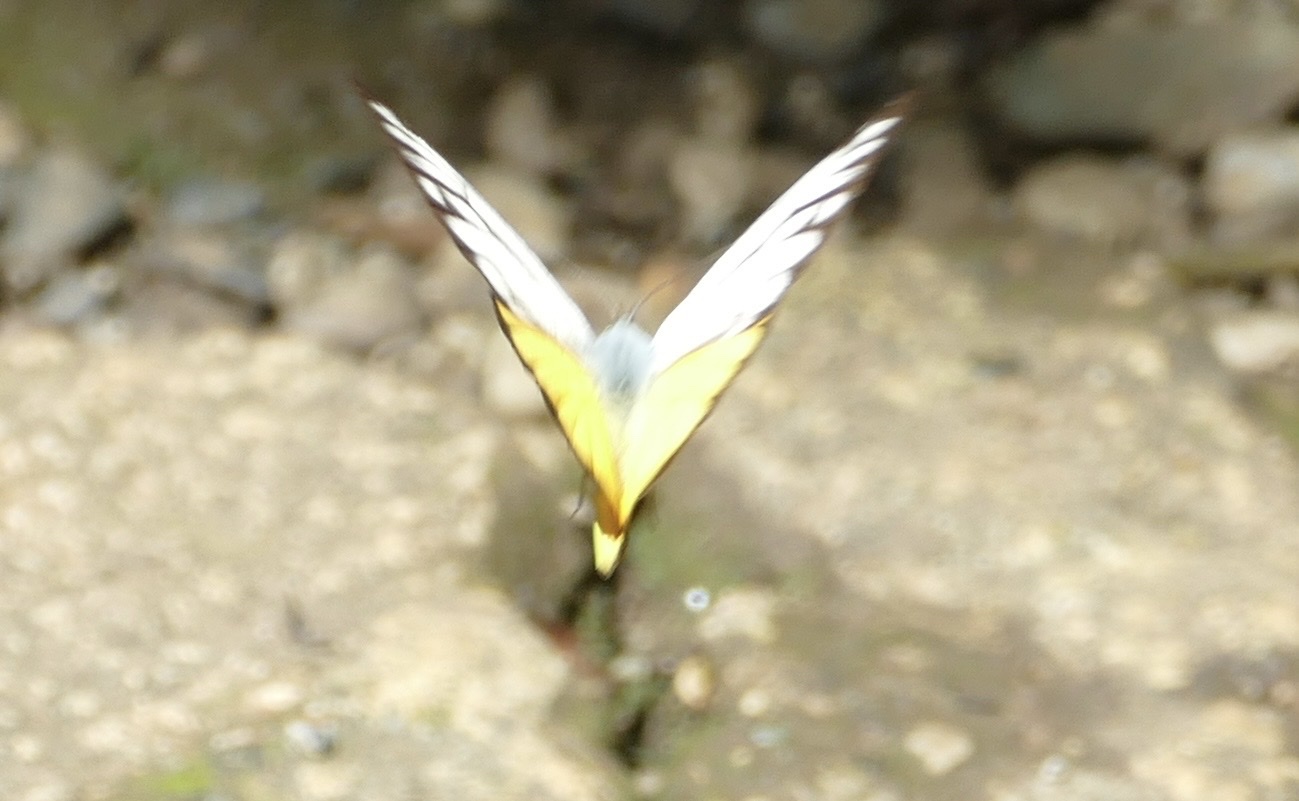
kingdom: Animalia
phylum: Arthropoda
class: Insecta
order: Lepidoptera
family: Pieridae
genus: Cepora
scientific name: Cepora aspasia
